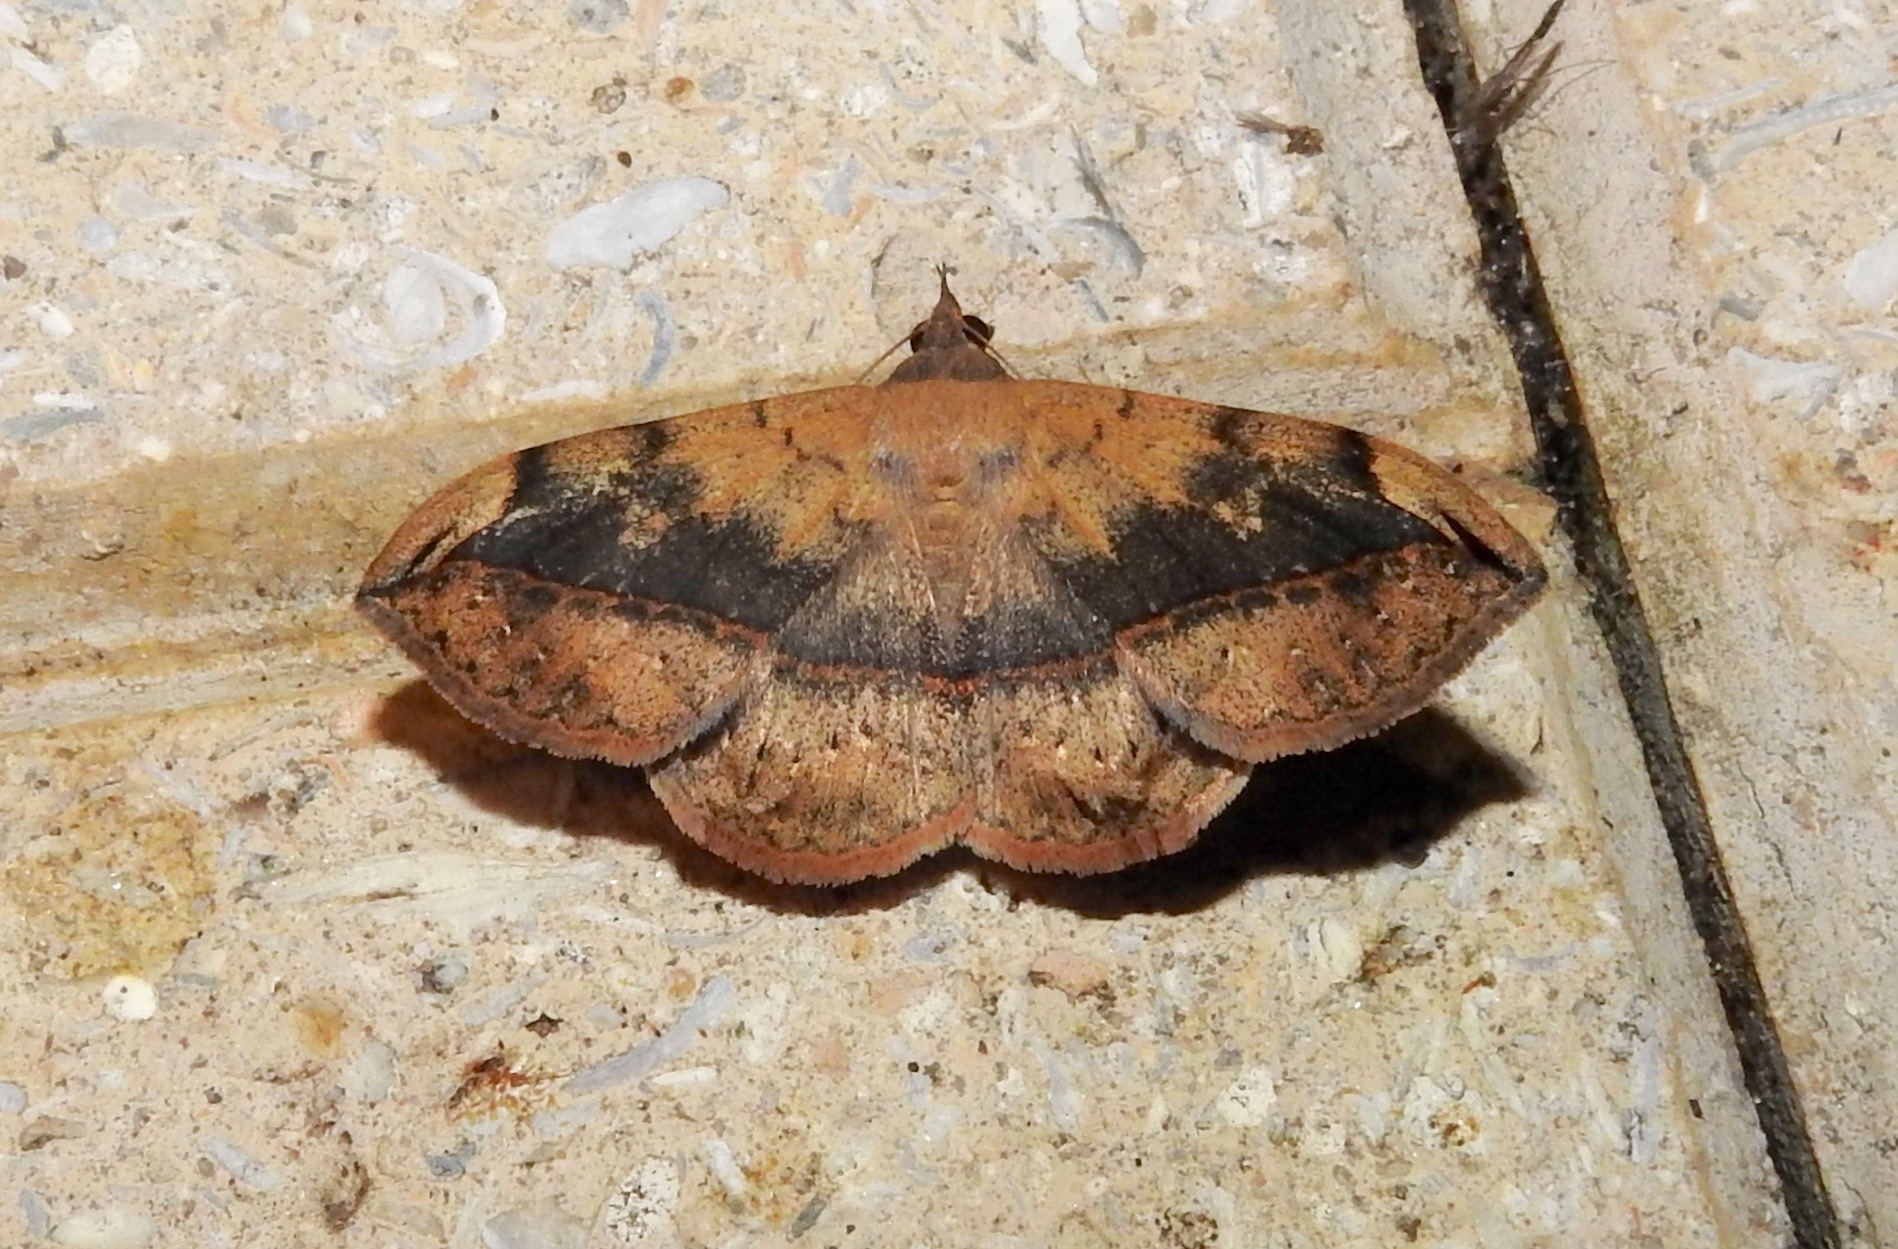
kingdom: Animalia
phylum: Arthropoda
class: Insecta
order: Lepidoptera
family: Erebidae
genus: Anticarsia
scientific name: Anticarsia gemmatalis
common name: Cutworm moth
